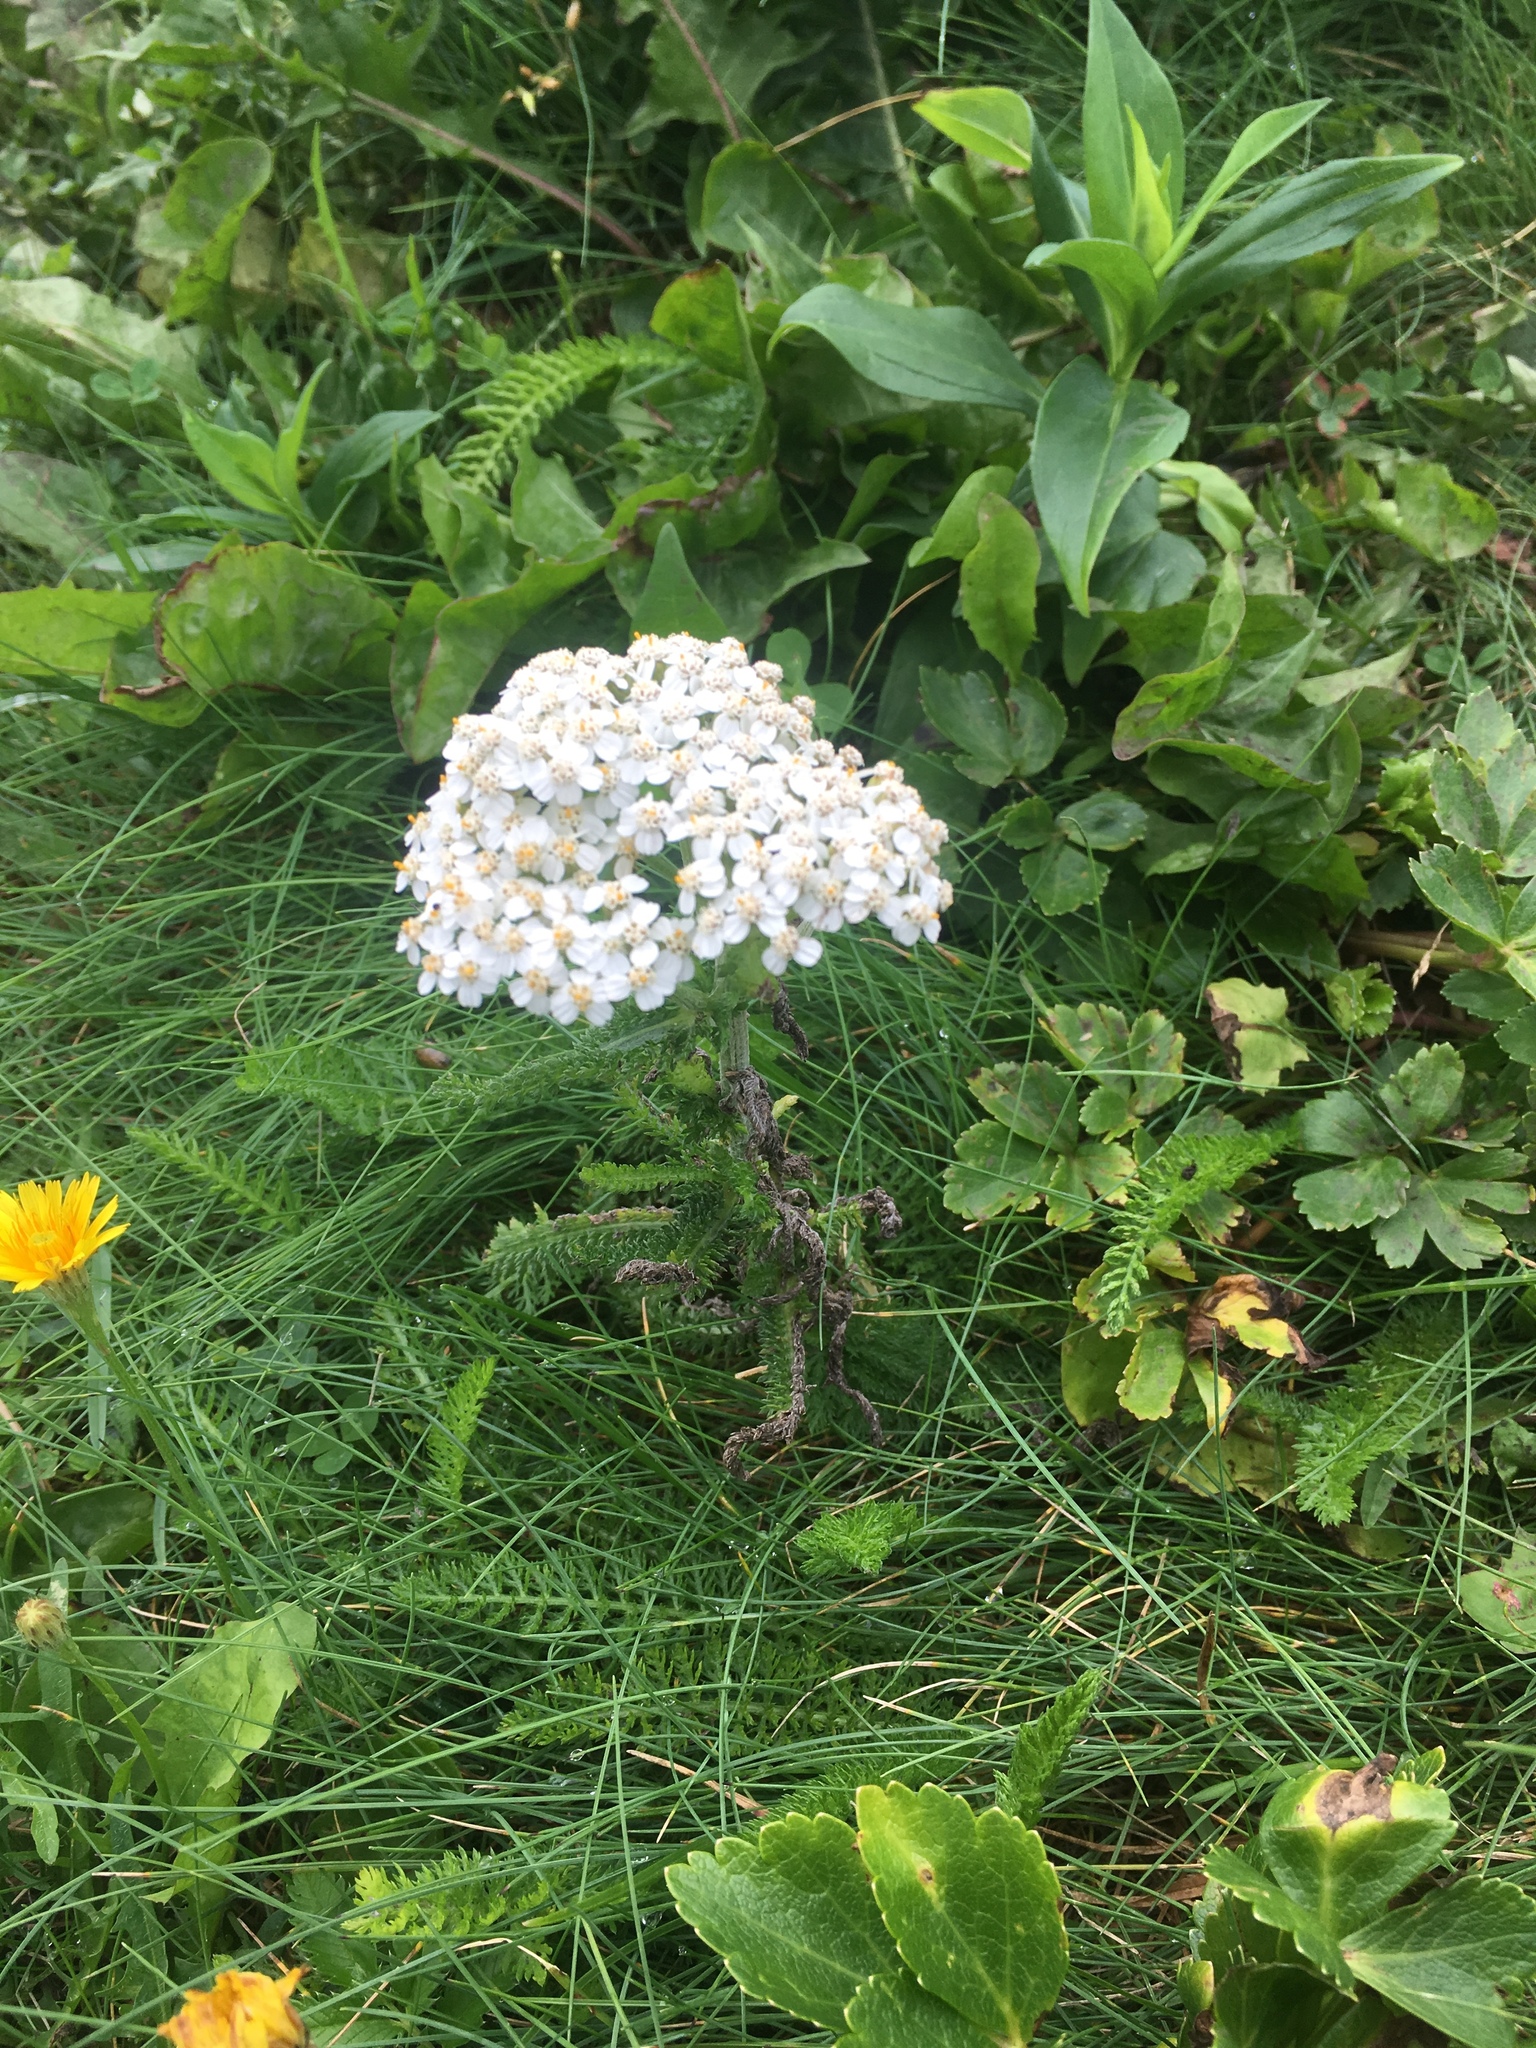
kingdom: Plantae
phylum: Tracheophyta
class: Magnoliopsida
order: Asterales
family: Asteraceae
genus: Achillea
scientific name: Achillea millefolium
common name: Yarrow
